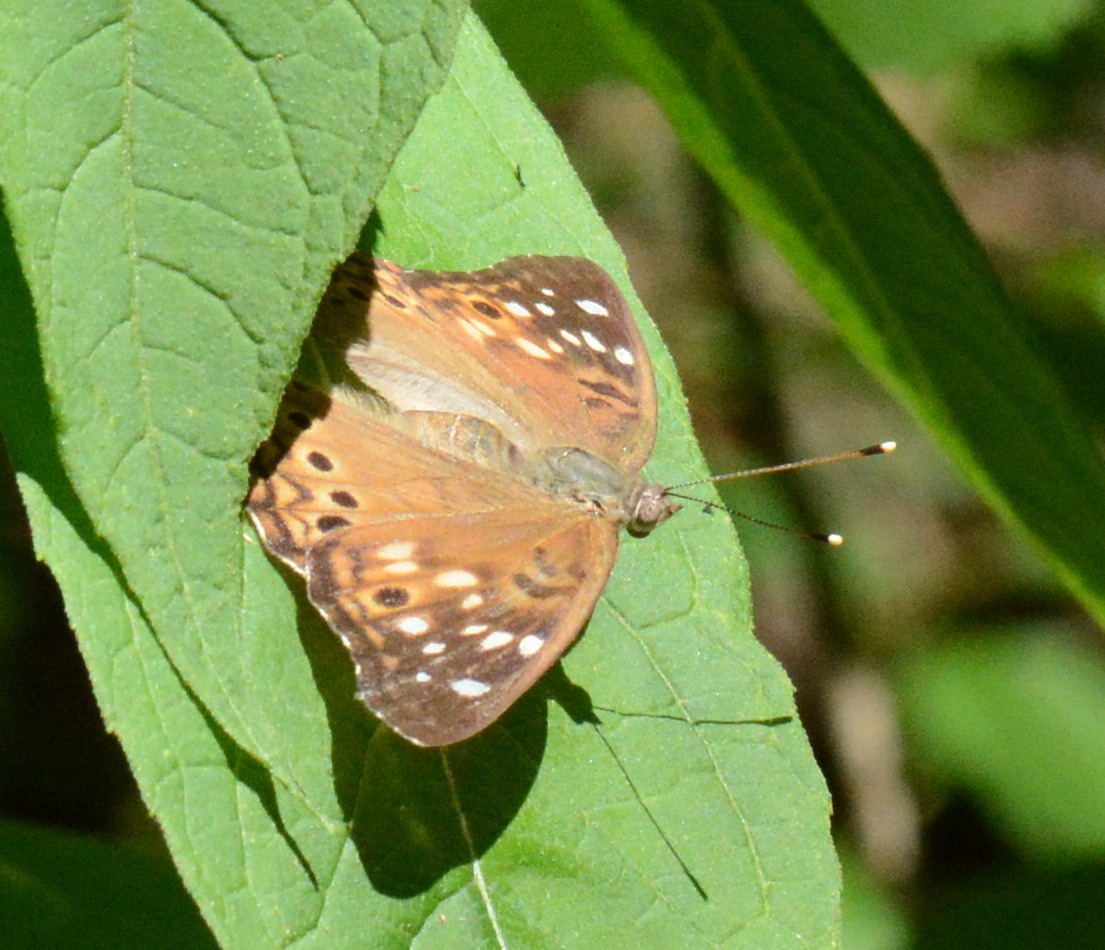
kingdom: Animalia
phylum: Arthropoda
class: Insecta
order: Lepidoptera
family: Nymphalidae
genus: Asterocampa
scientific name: Asterocampa celtis
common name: Hackberry emperor
